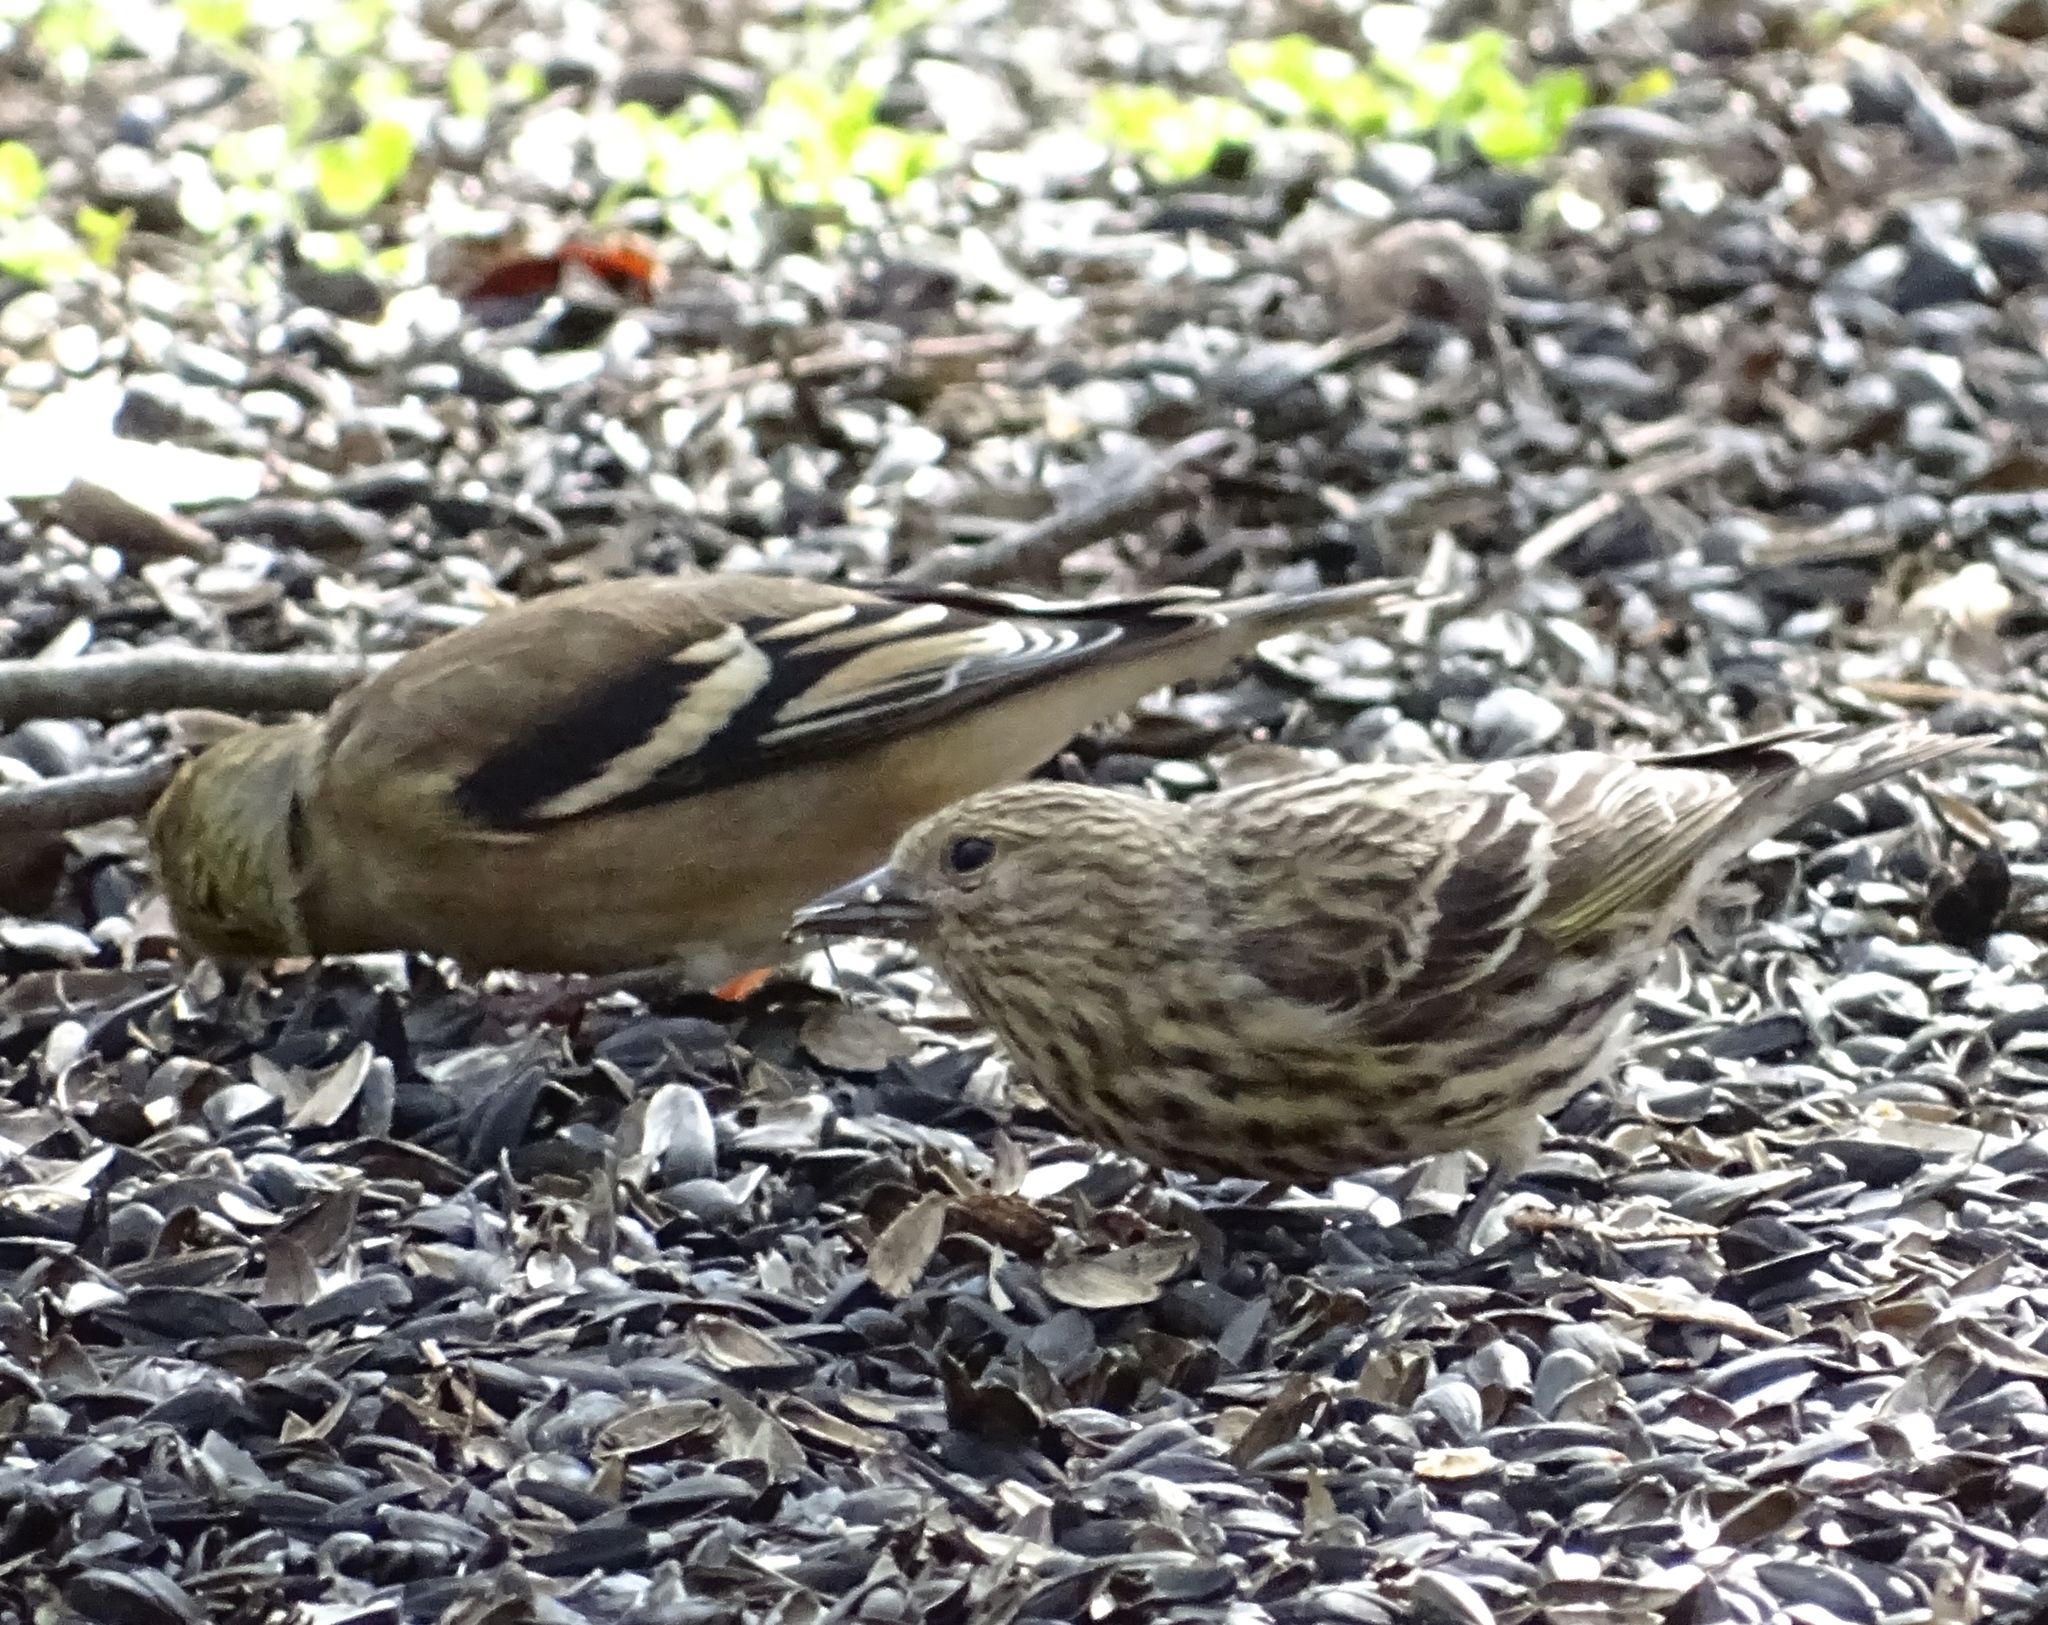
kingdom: Animalia
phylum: Chordata
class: Aves
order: Passeriformes
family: Fringillidae
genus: Spinus
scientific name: Spinus pinus
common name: Pine siskin
